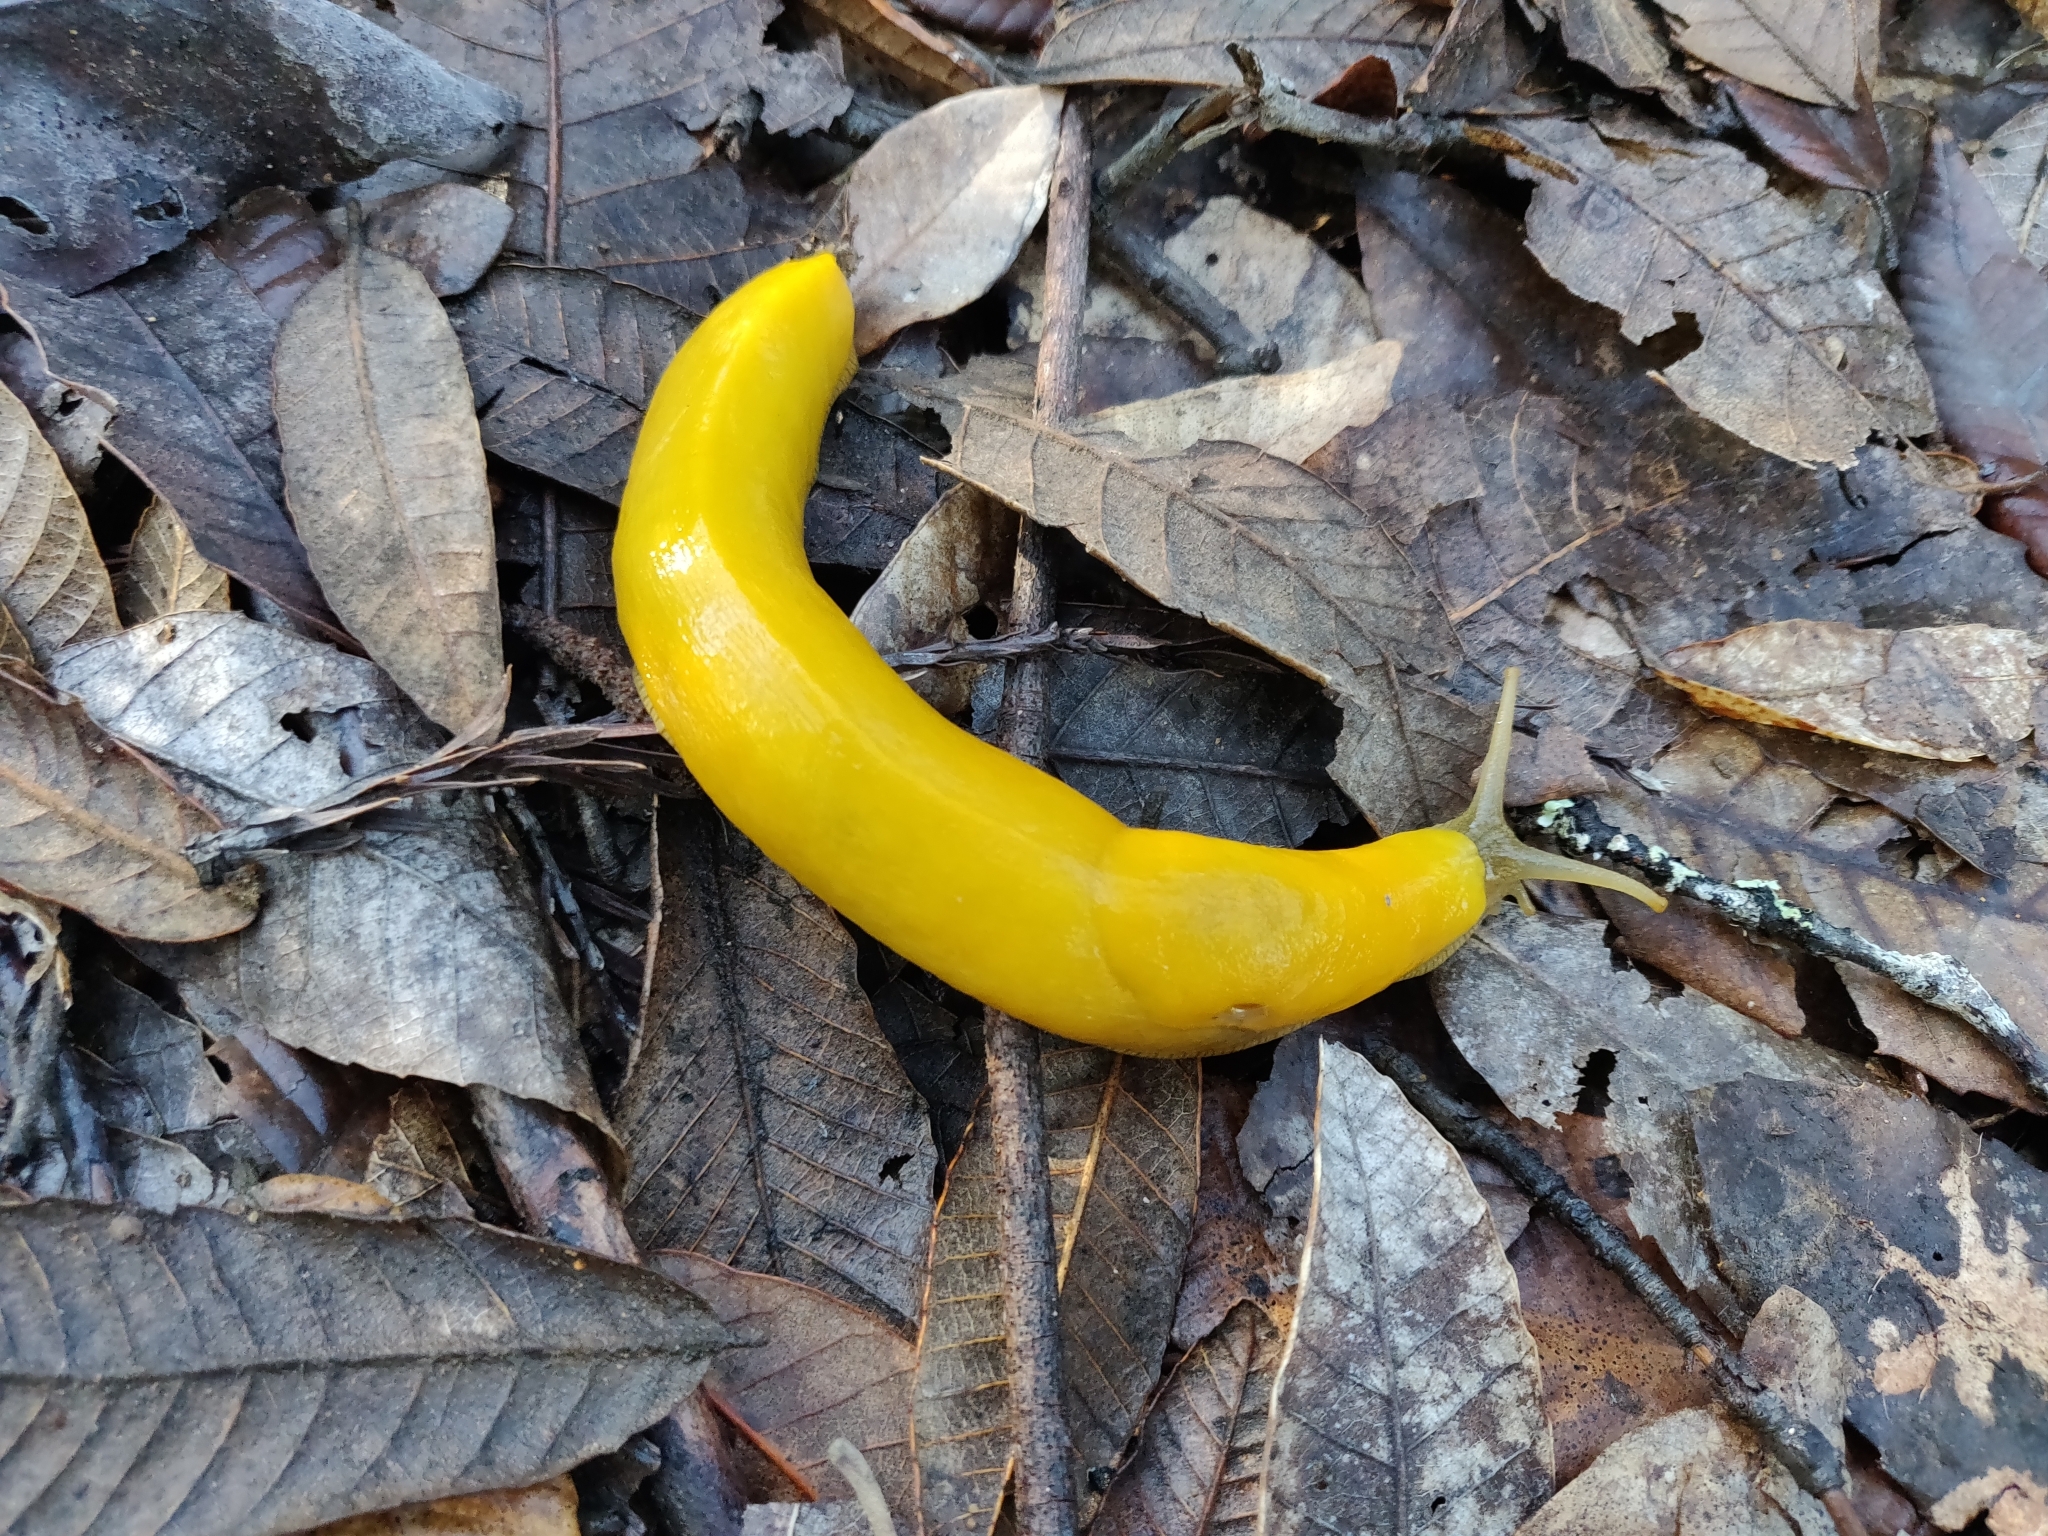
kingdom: Animalia
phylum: Mollusca
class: Gastropoda
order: Stylommatophora
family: Ariolimacidae
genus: Ariolimax
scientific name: Ariolimax californicus
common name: California banana slug
